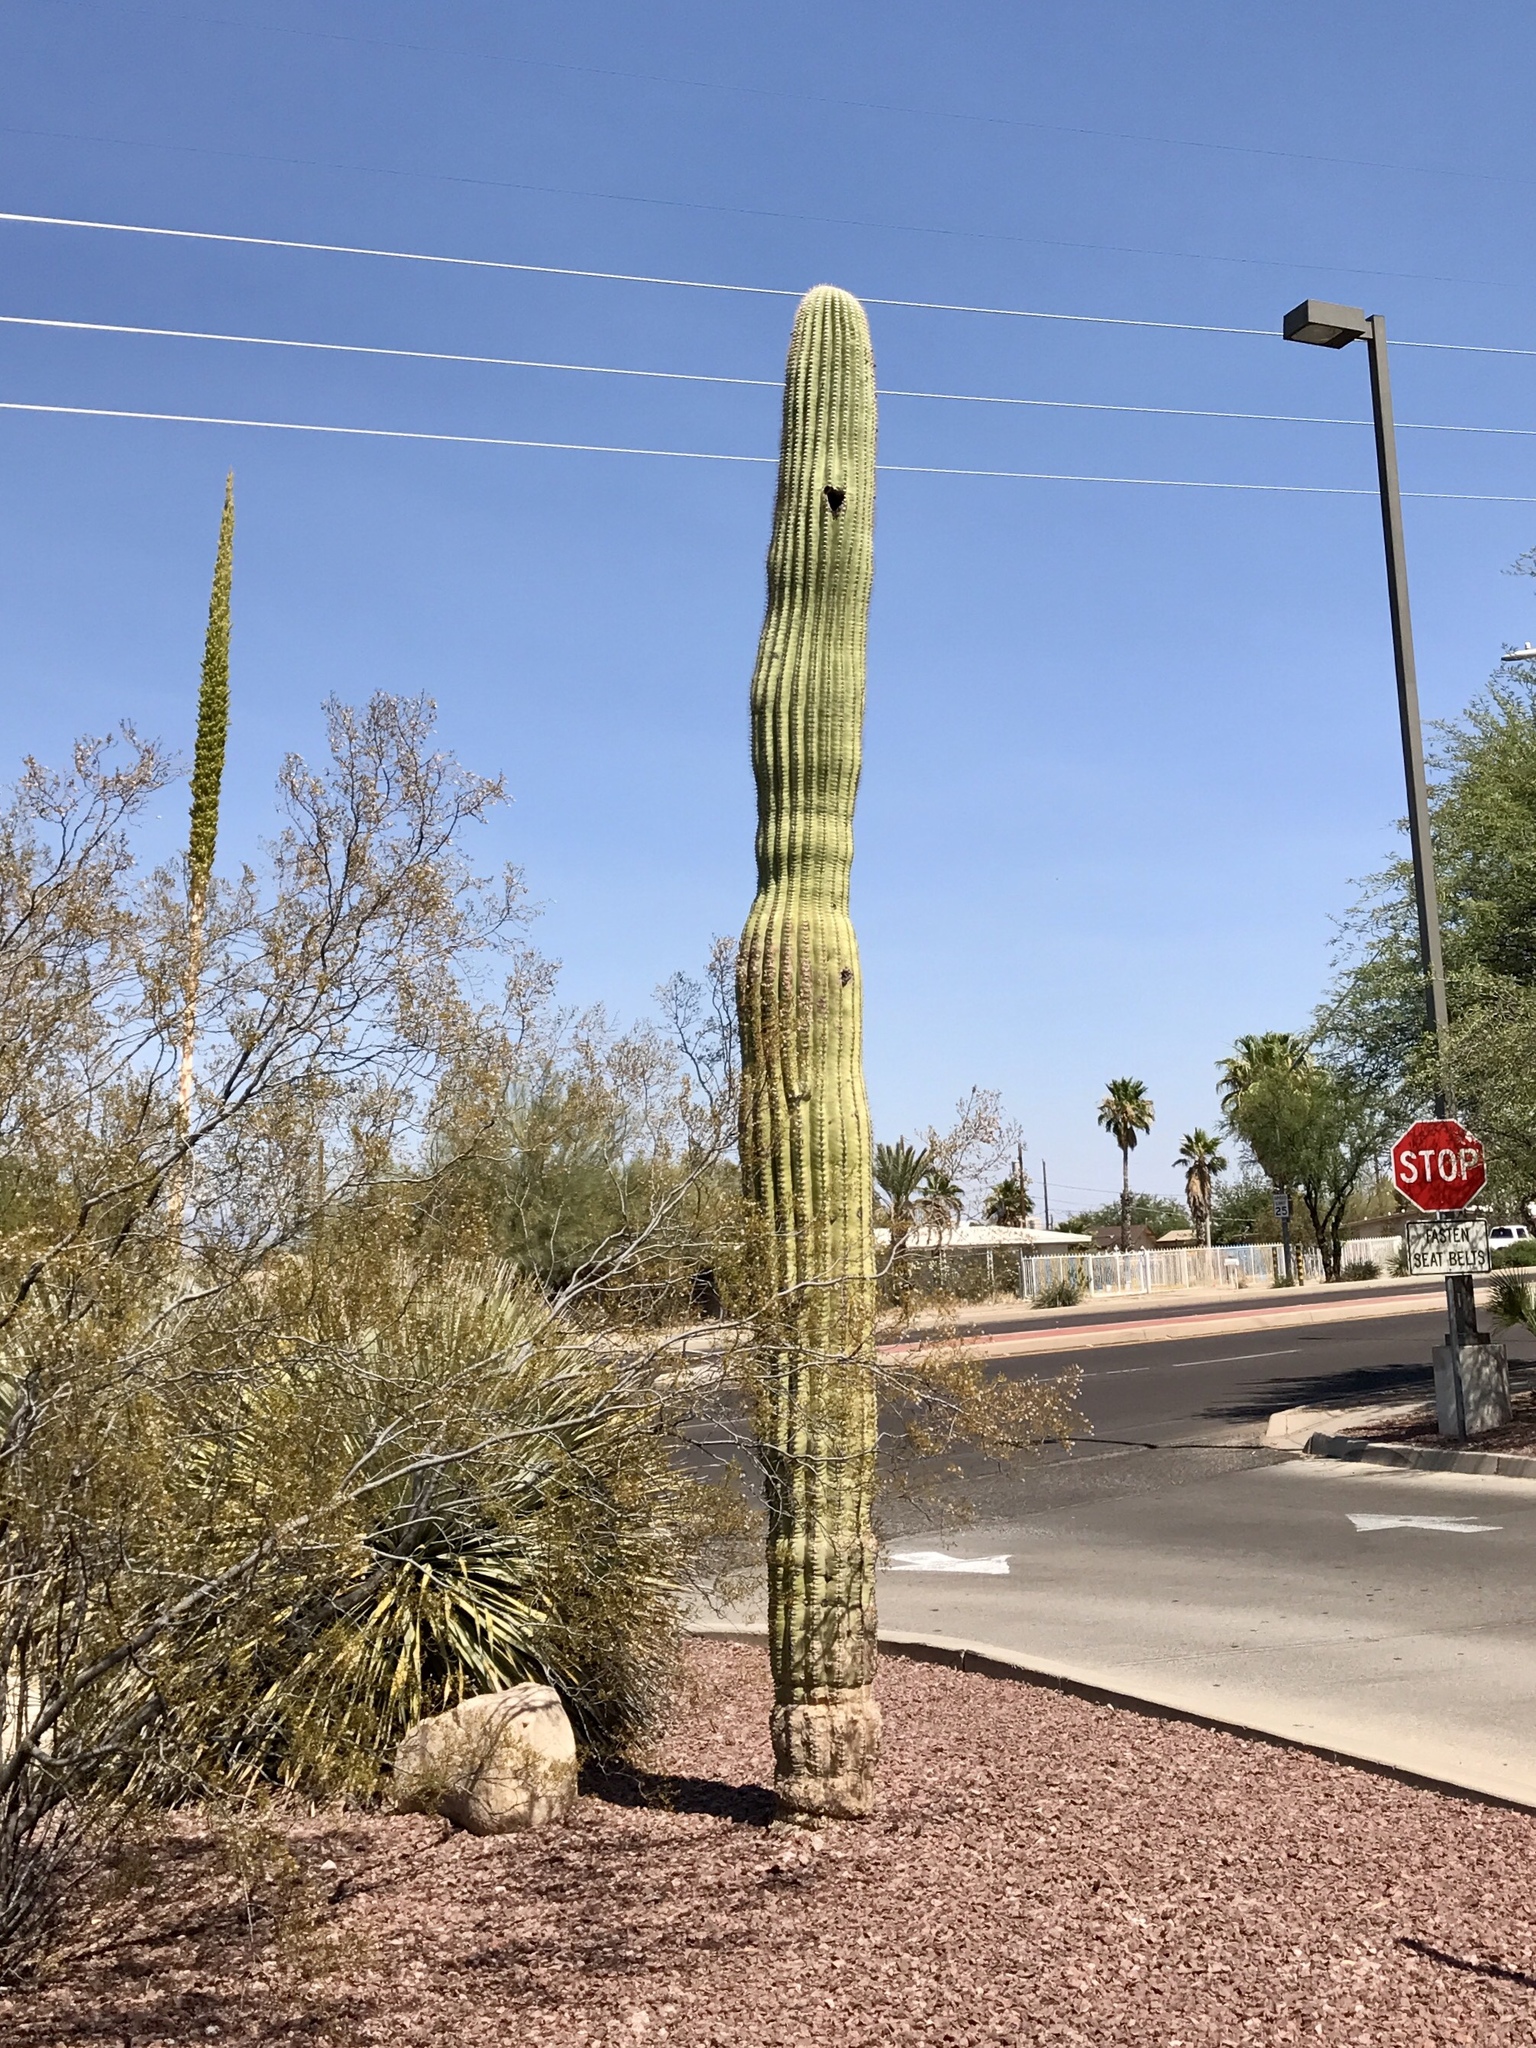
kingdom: Plantae
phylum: Tracheophyta
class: Magnoliopsida
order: Caryophyllales
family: Cactaceae
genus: Carnegiea
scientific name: Carnegiea gigantea
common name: Saguaro
